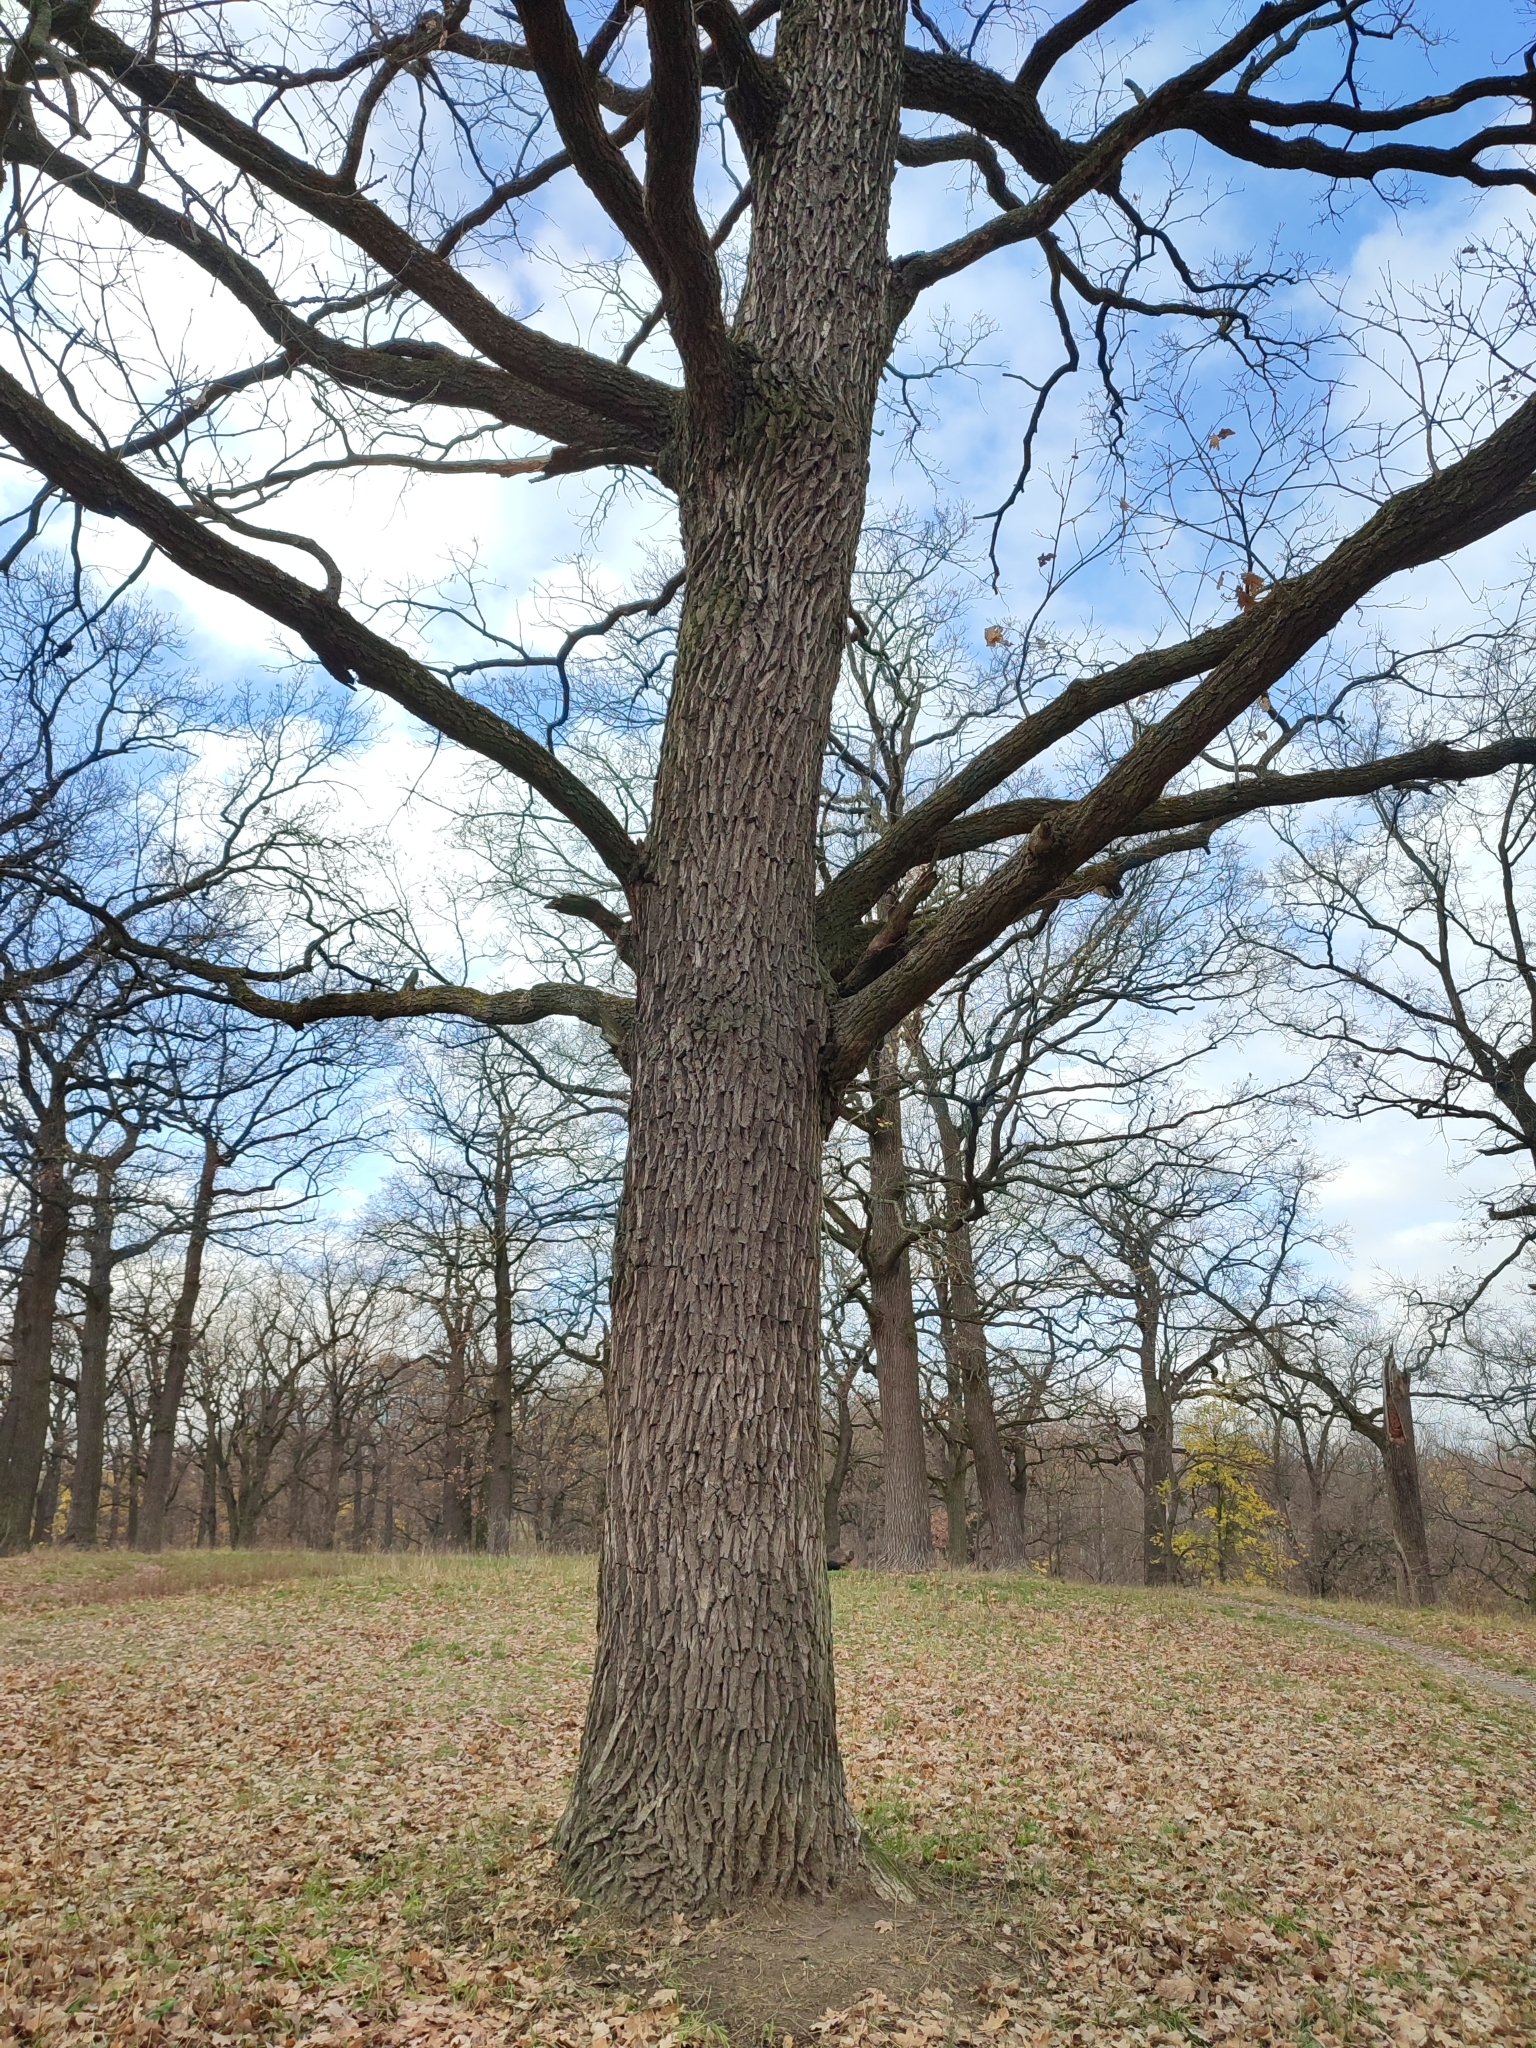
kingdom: Plantae
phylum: Tracheophyta
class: Magnoliopsida
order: Fagales
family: Fagaceae
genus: Quercus
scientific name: Quercus robur
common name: Pedunculate oak
